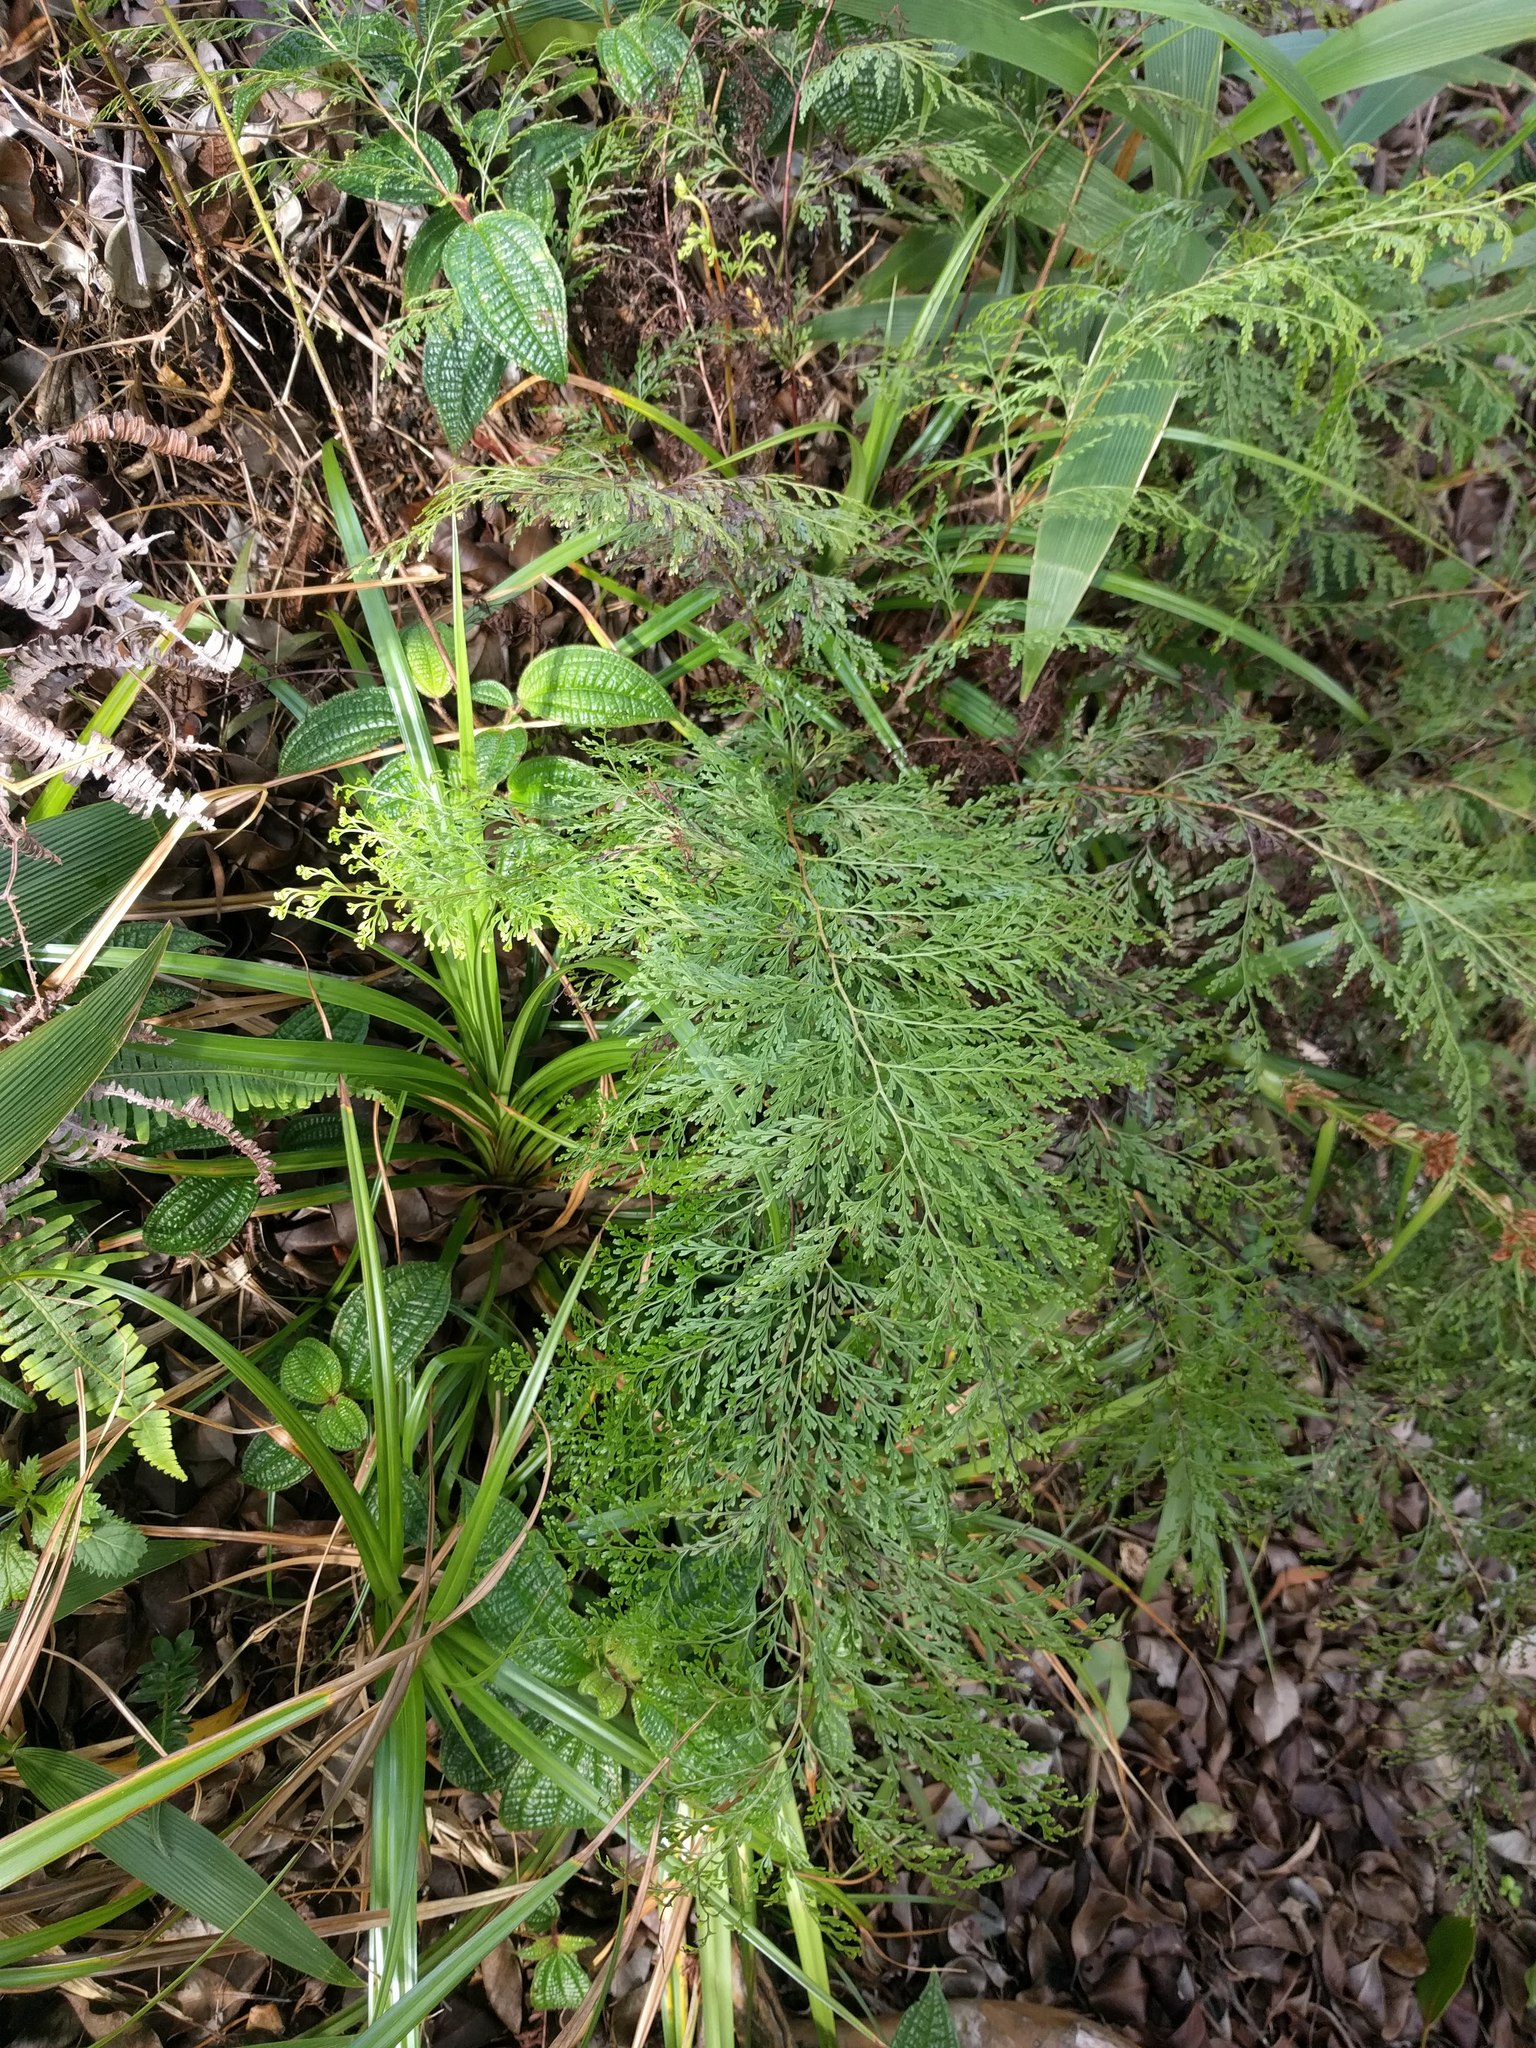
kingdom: Plantae
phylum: Tracheophyta
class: Polypodiopsida
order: Polypodiales
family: Lindsaeaceae
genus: Odontosoria
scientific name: Odontosoria chinensis
